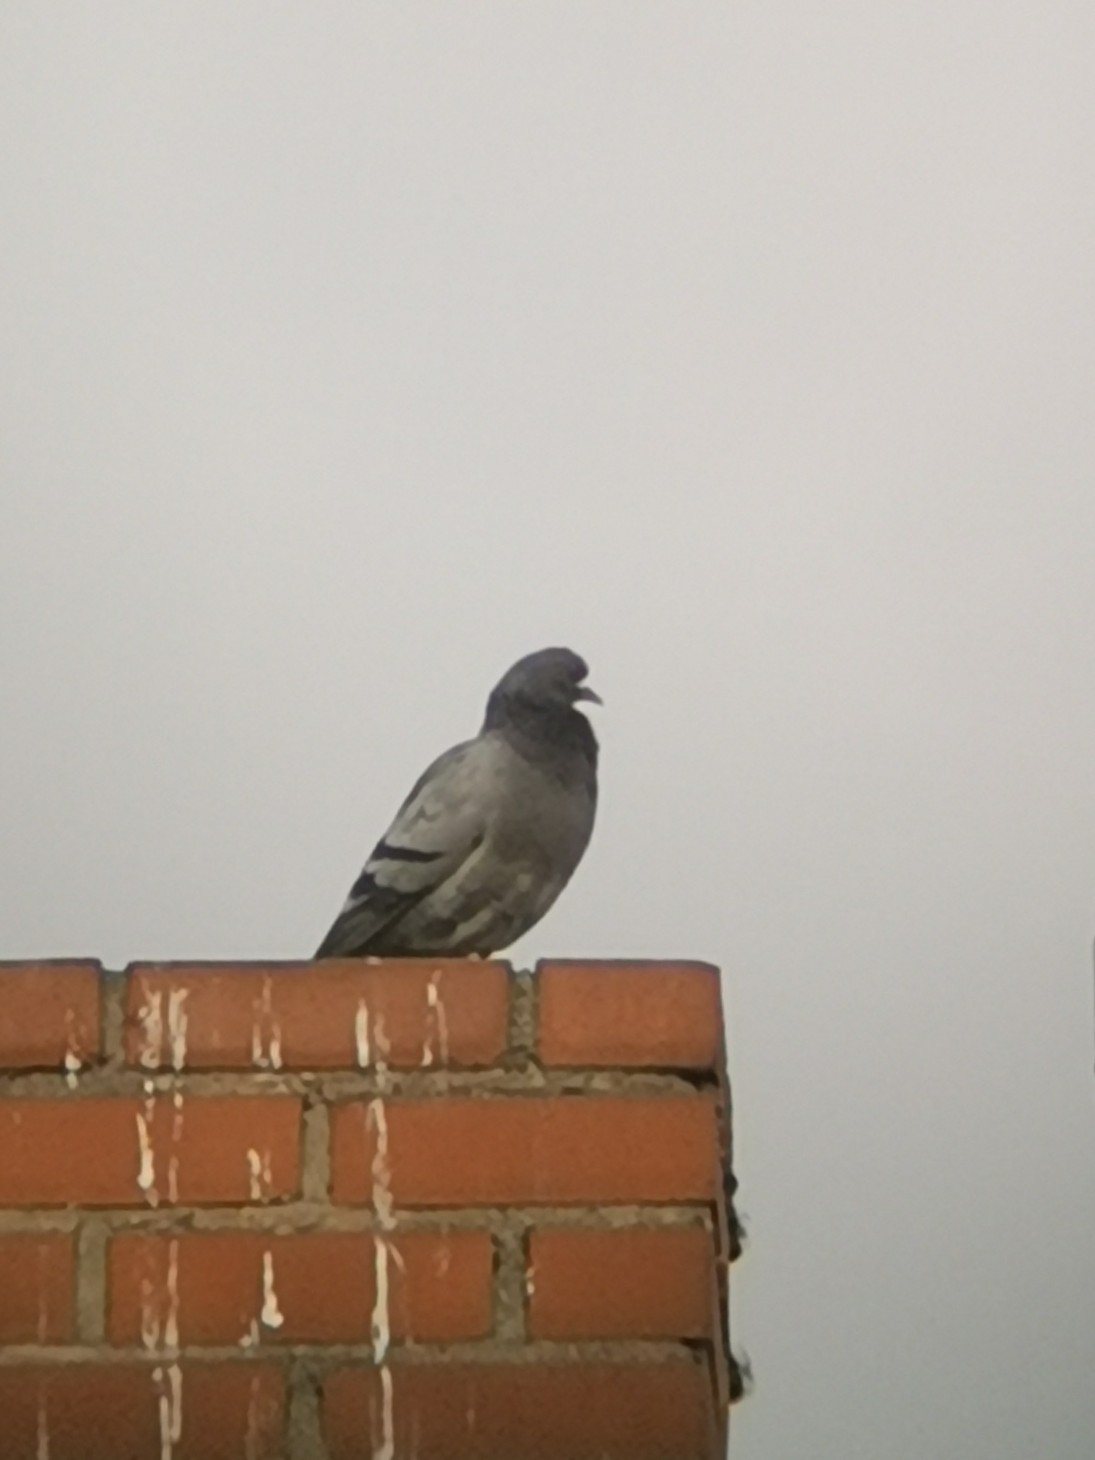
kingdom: Animalia
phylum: Chordata
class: Aves
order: Columbiformes
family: Columbidae
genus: Columba
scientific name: Columba livia
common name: Rock pigeon
